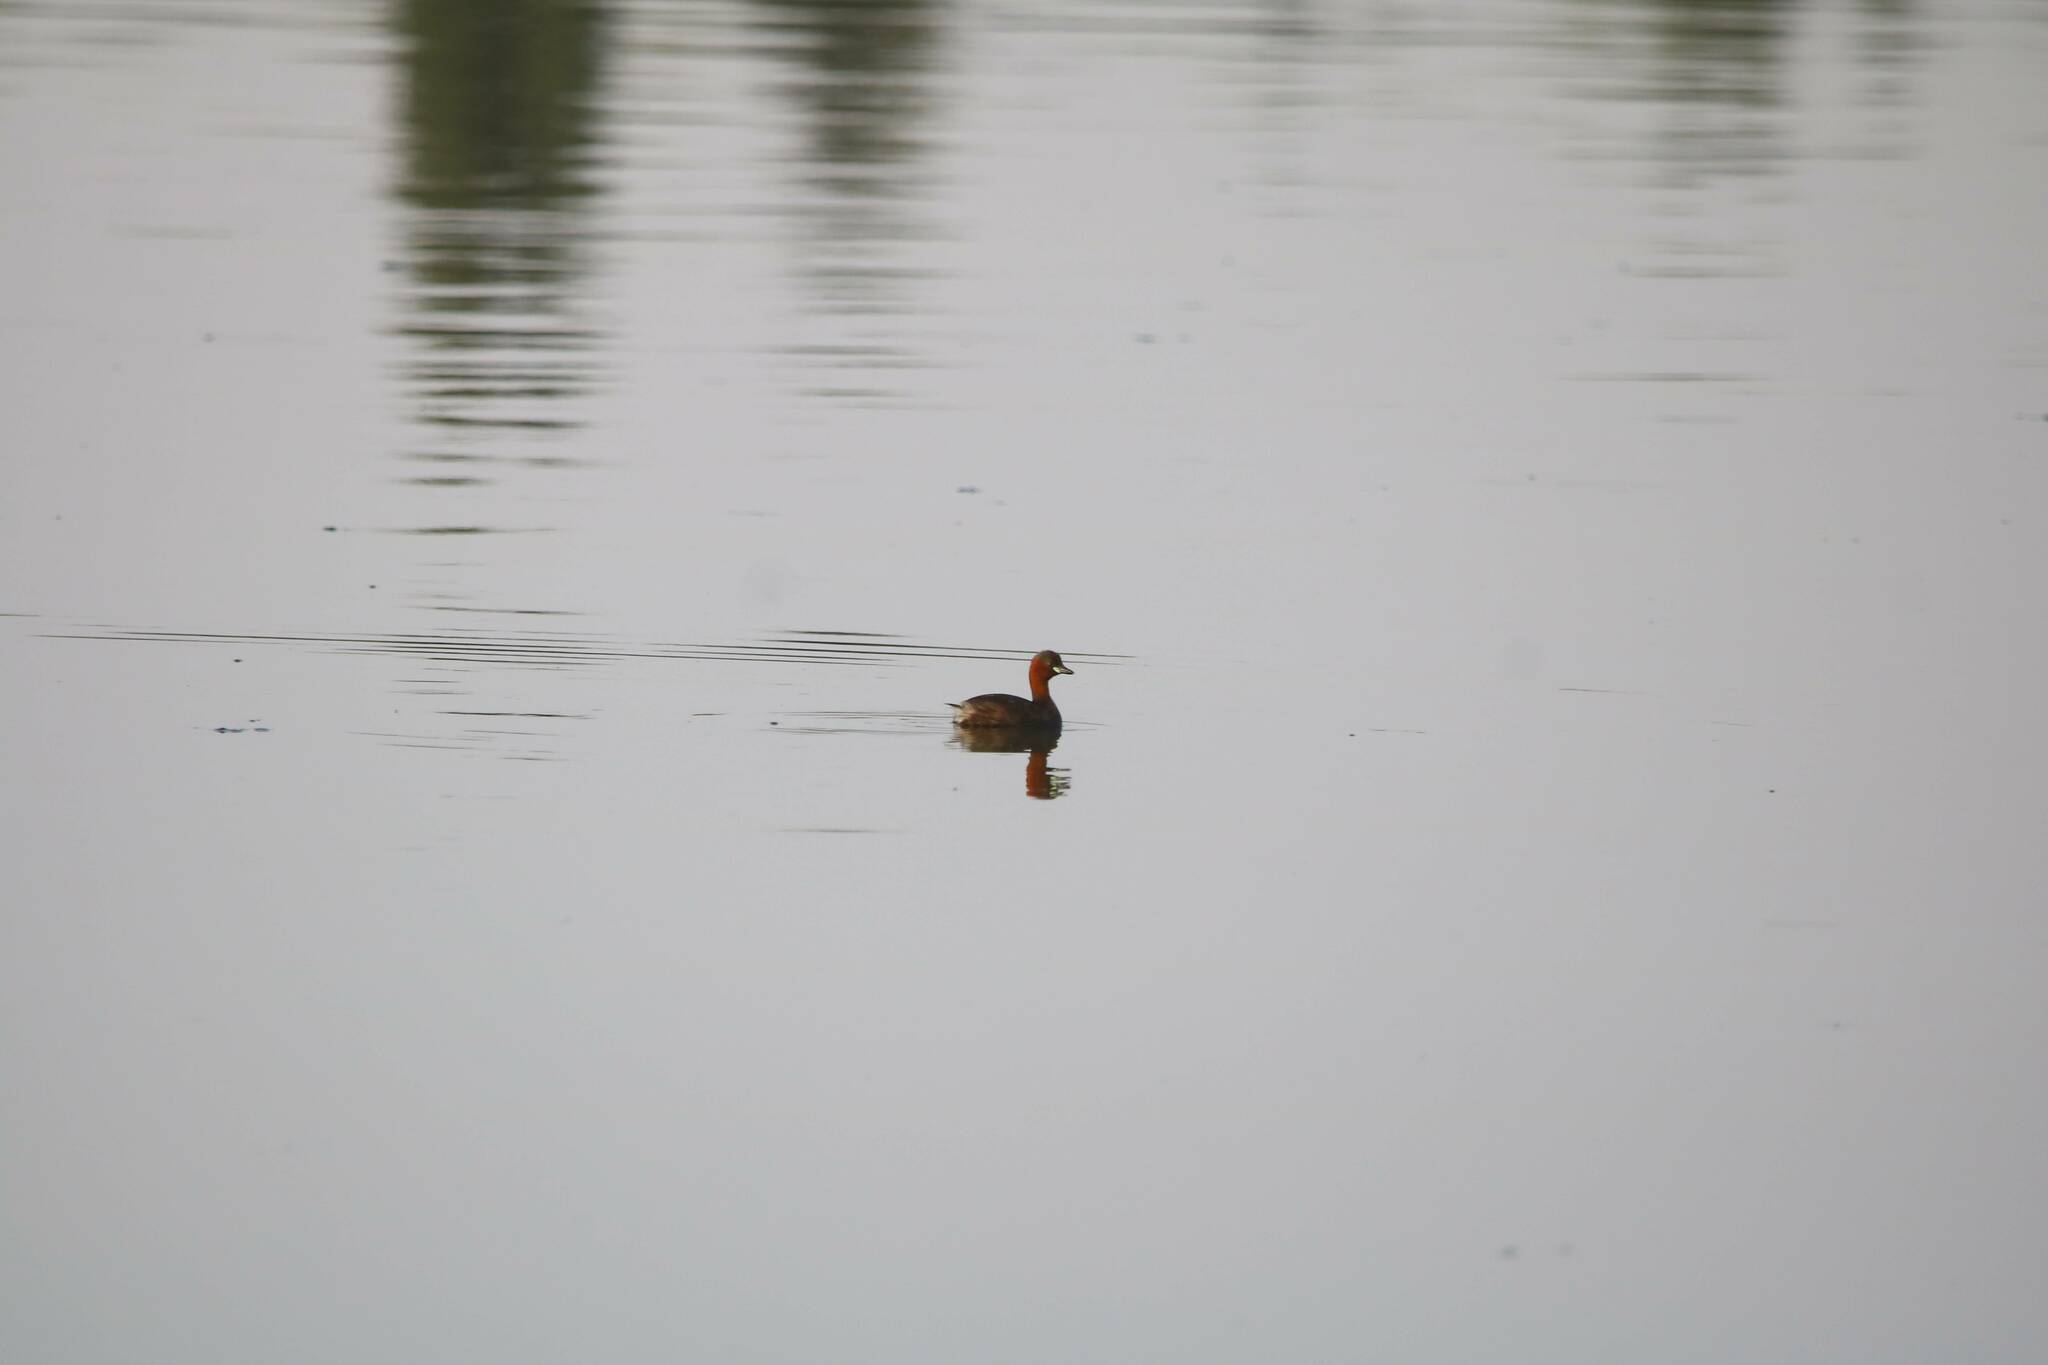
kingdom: Animalia
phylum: Chordata
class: Aves
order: Podicipediformes
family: Podicipedidae
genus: Tachybaptus
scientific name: Tachybaptus ruficollis
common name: Little grebe
